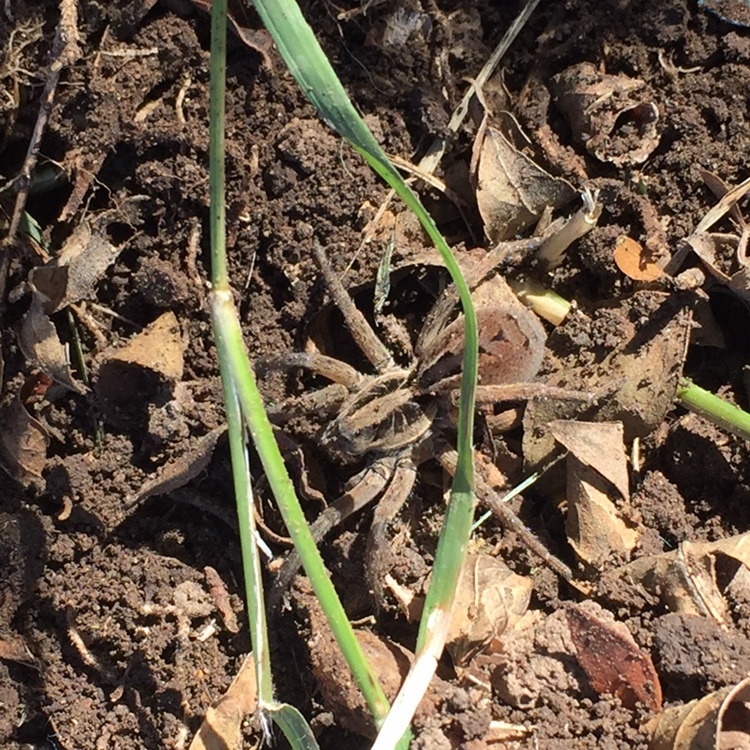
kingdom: Animalia
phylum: Arthropoda
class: Arachnida
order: Araneae
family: Lycosidae
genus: Lycosa
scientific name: Lycosa erythrognatha
